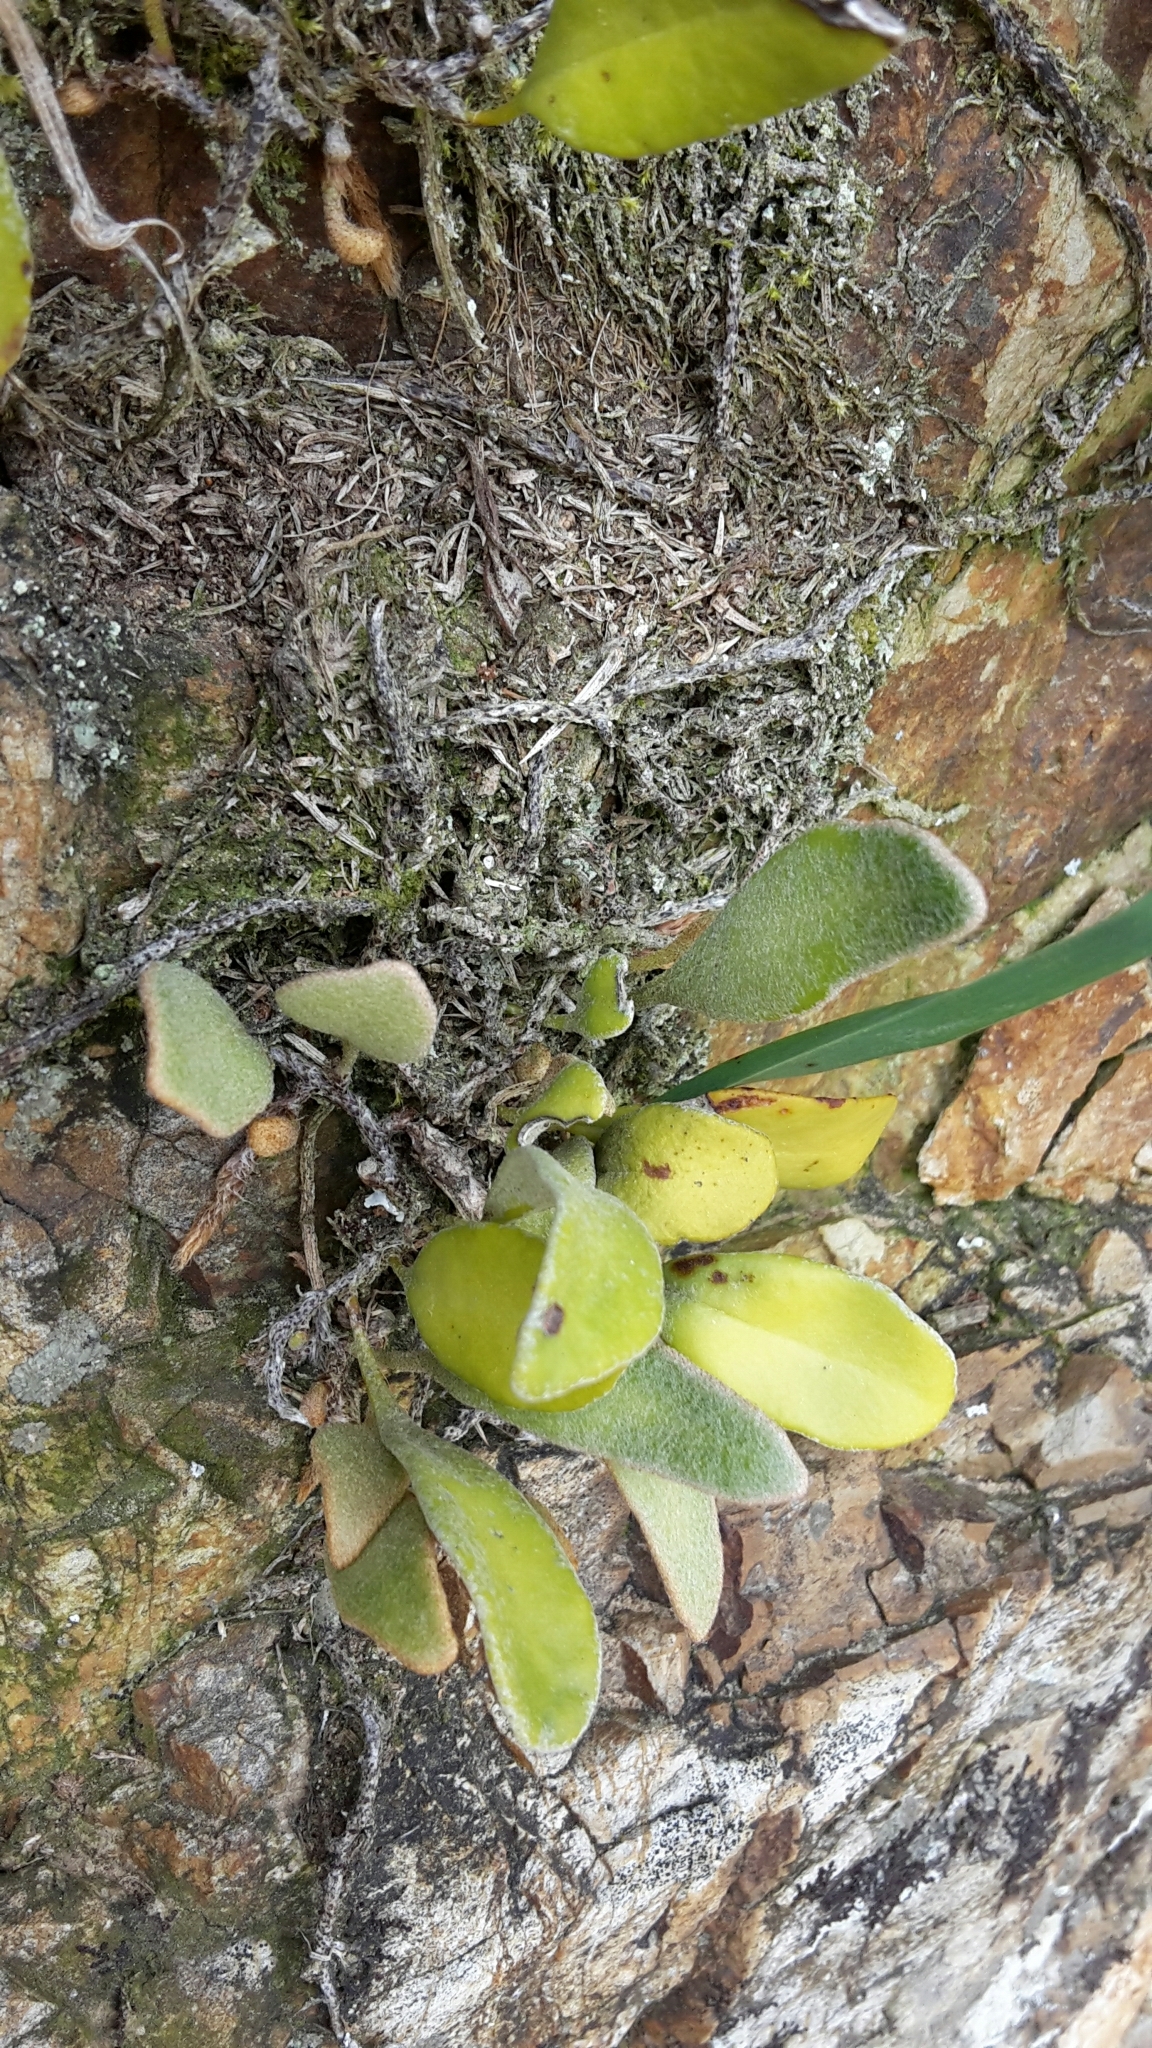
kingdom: Plantae
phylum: Tracheophyta
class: Polypodiopsida
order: Polypodiales
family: Polypodiaceae
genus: Pyrrosia
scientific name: Pyrrosia eleagnifolia
